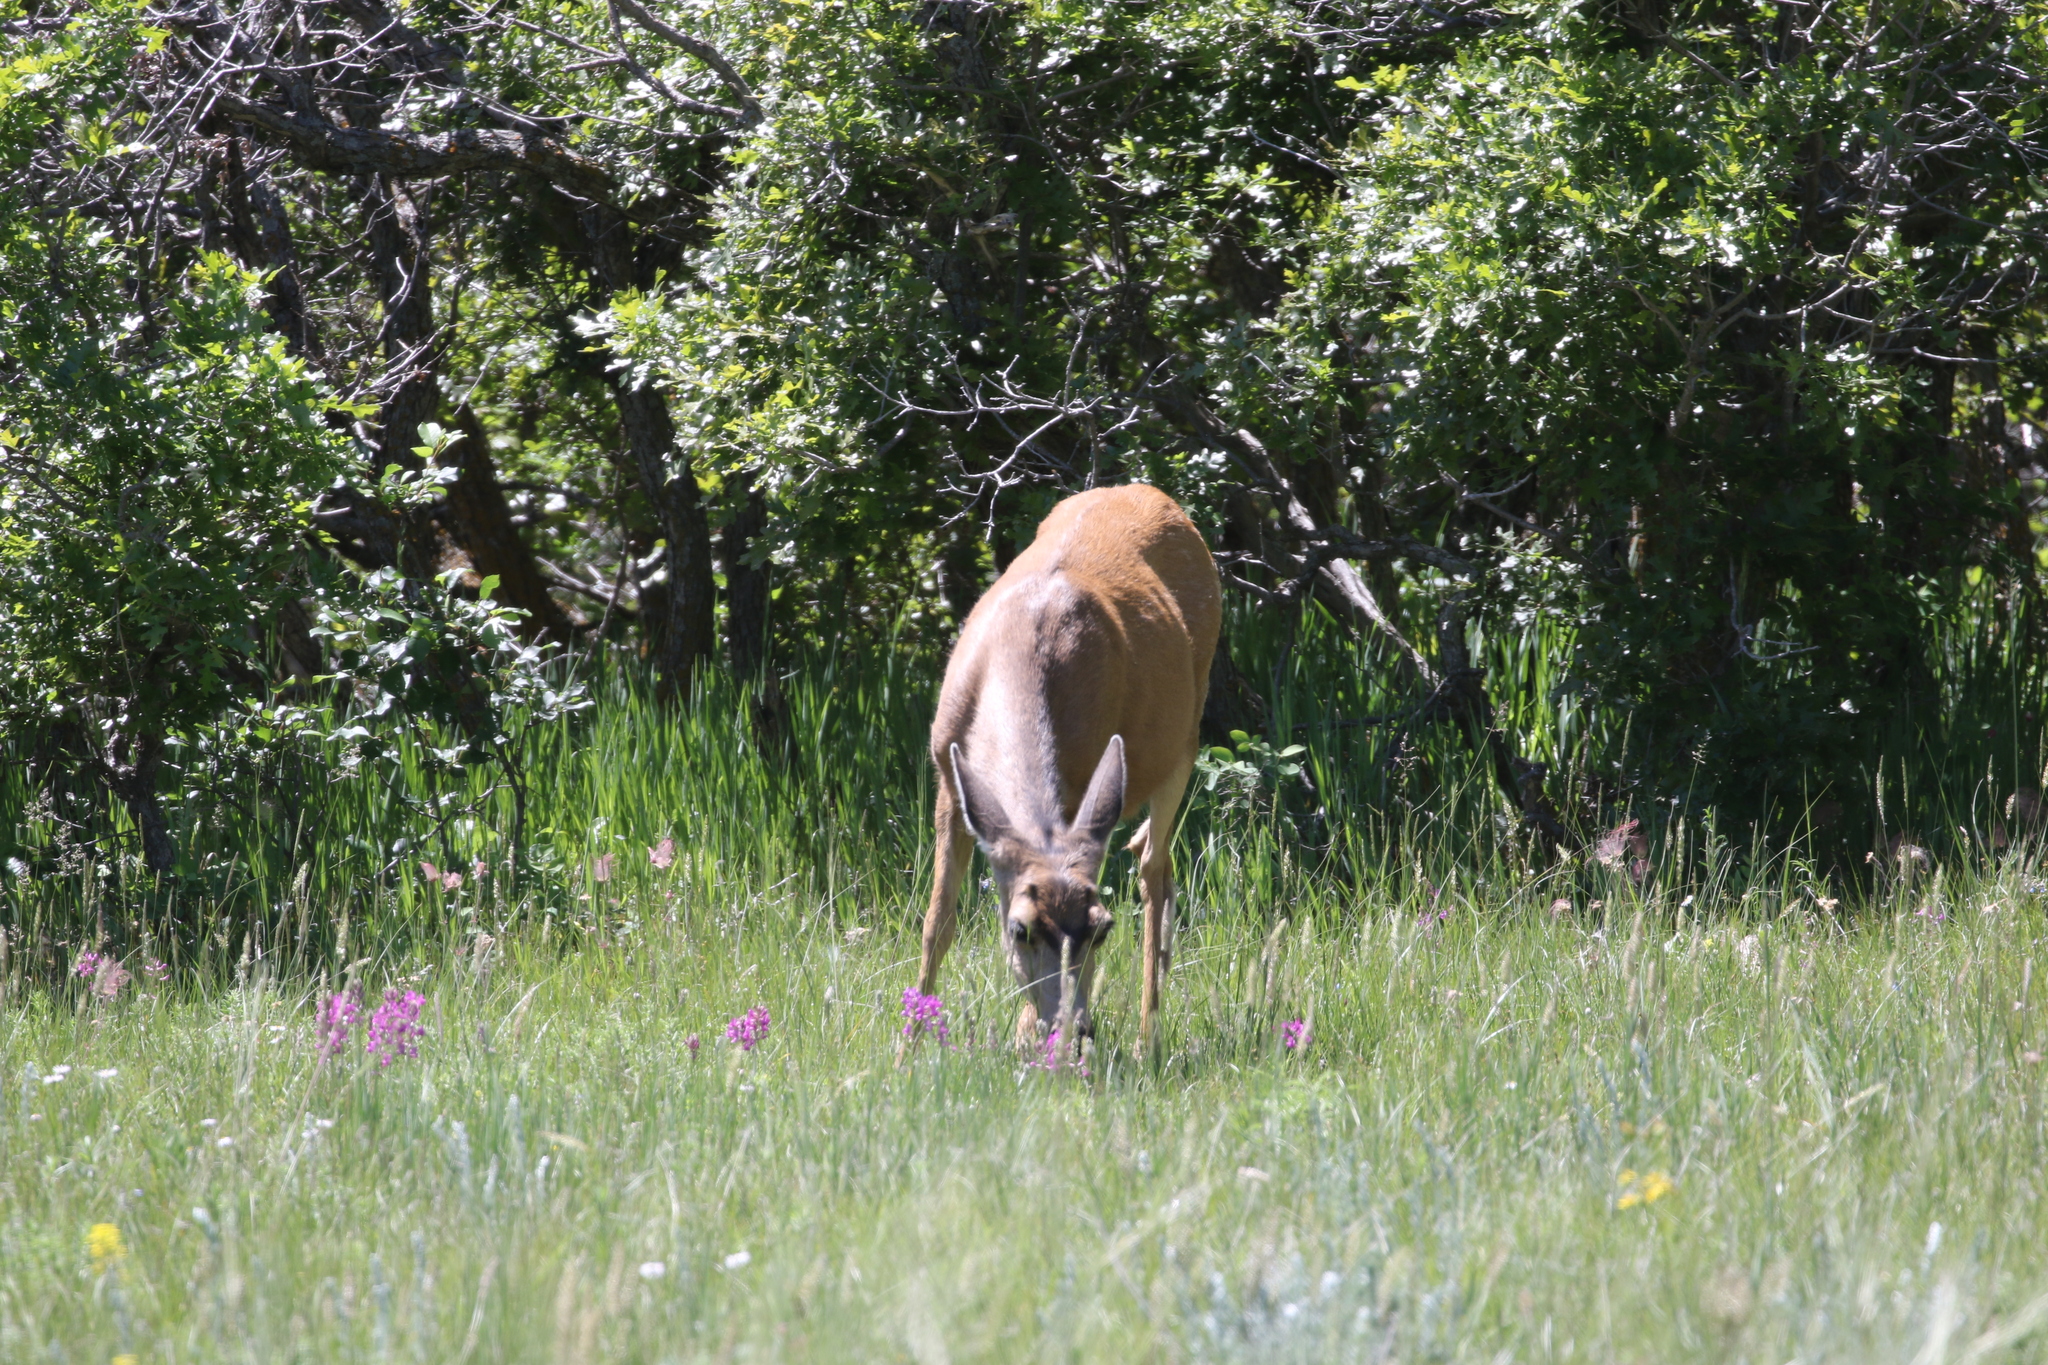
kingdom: Animalia
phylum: Chordata
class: Mammalia
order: Artiodactyla
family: Cervidae
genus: Odocoileus
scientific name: Odocoileus hemionus
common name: Mule deer
